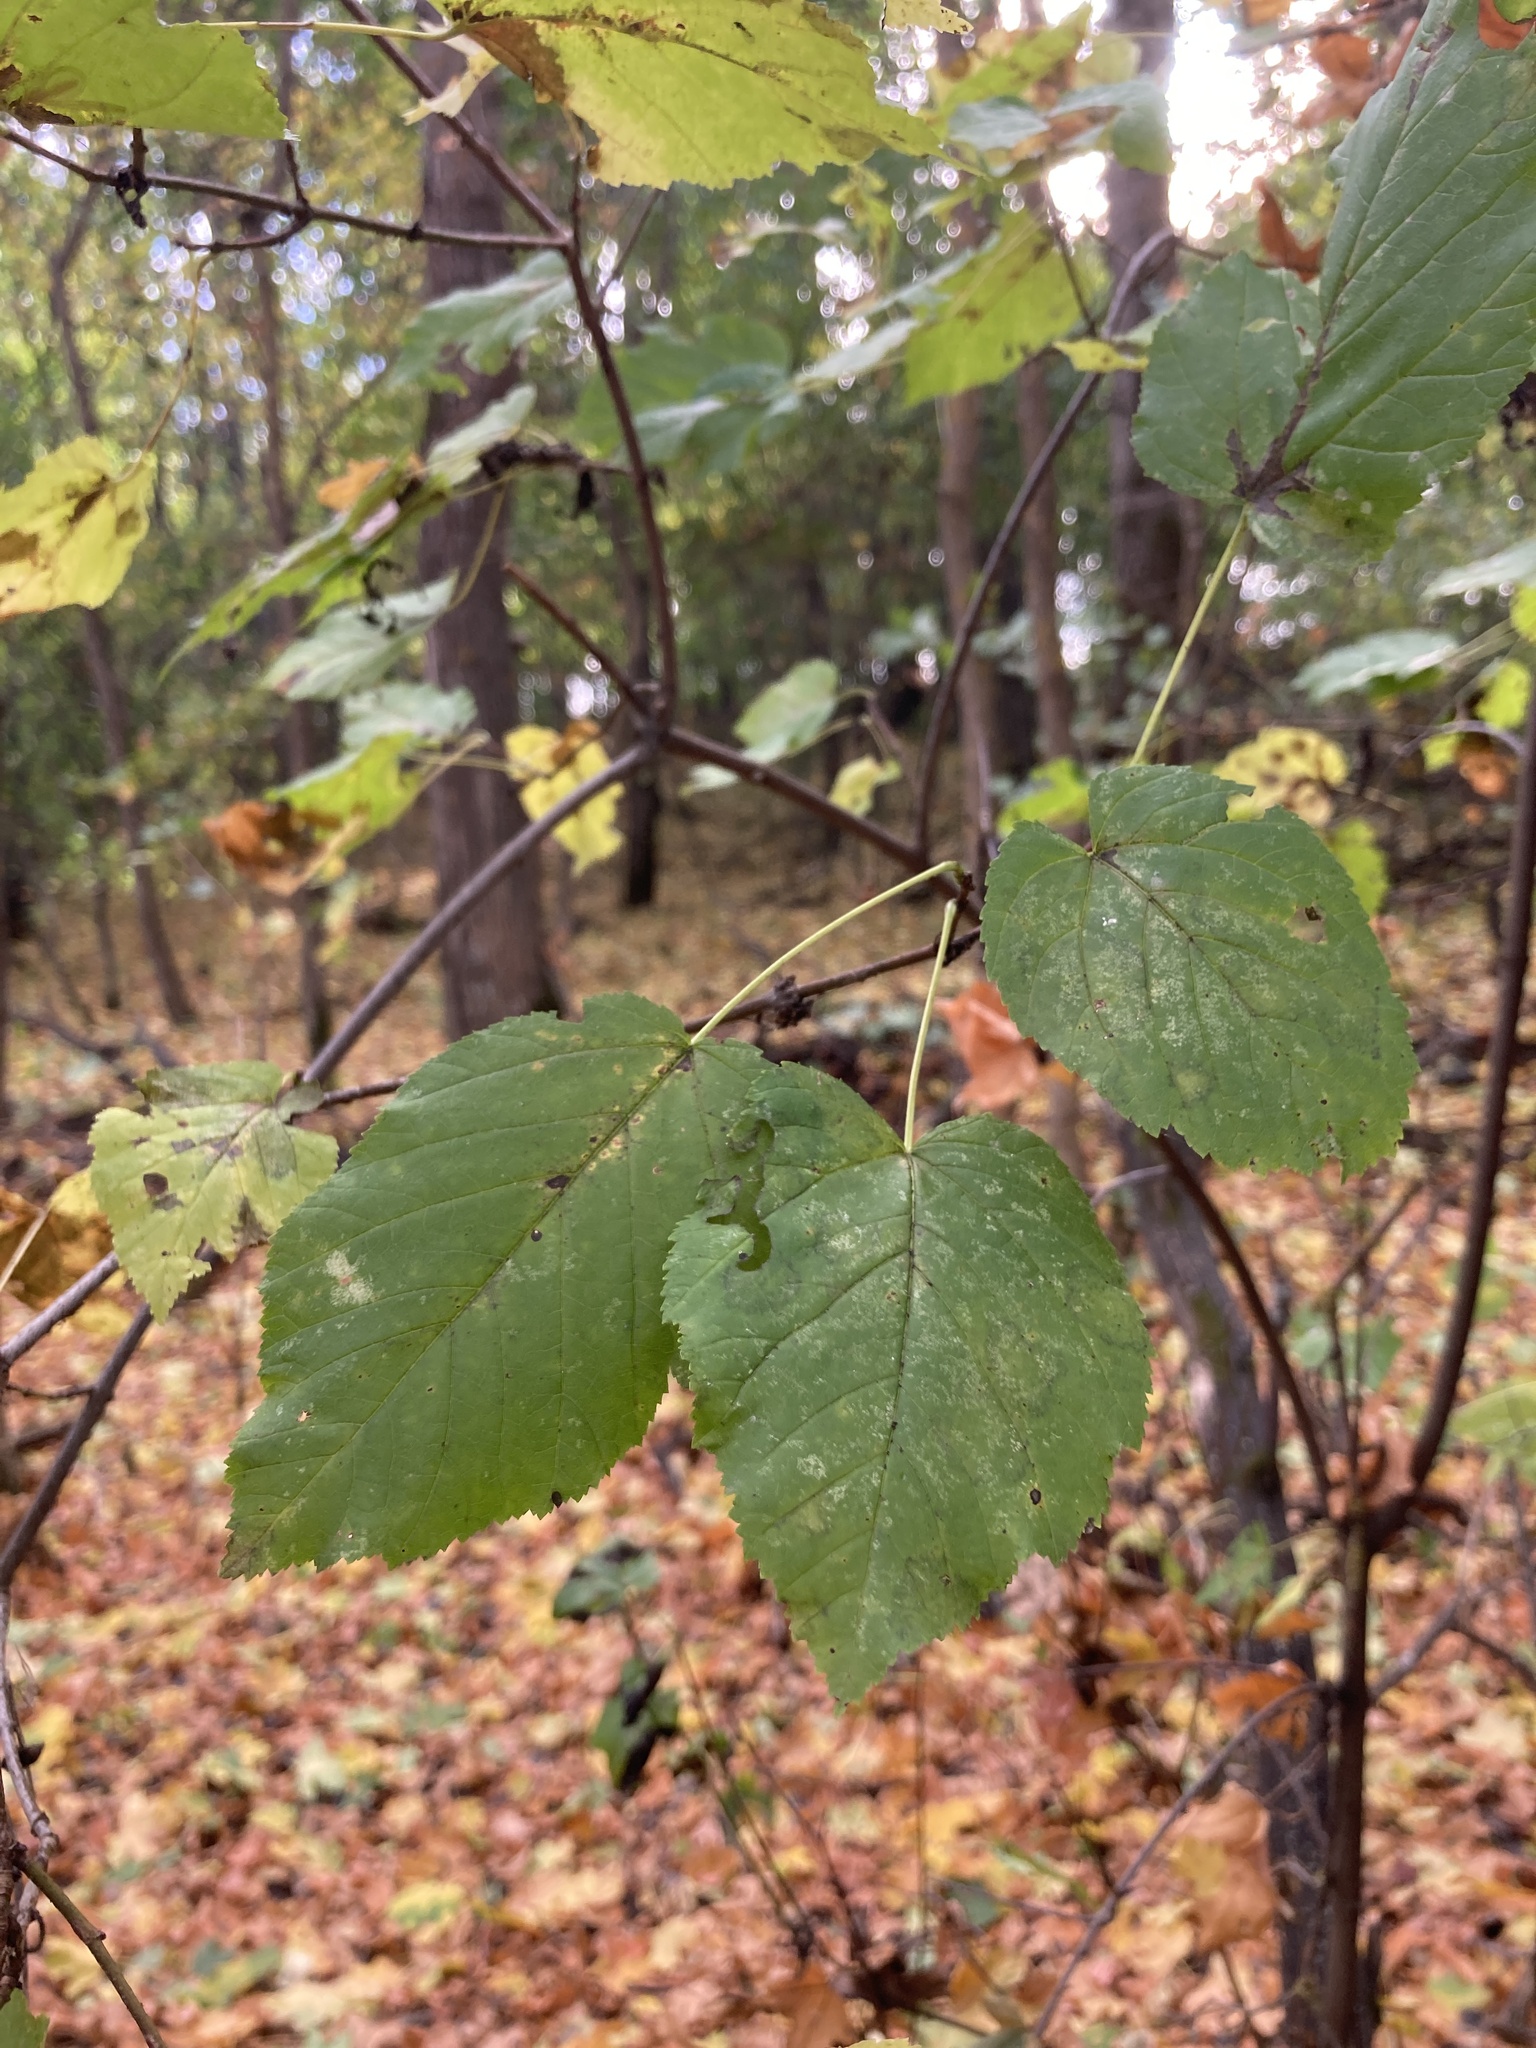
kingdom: Plantae
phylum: Tracheophyta
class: Magnoliopsida
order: Sapindales
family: Sapindaceae
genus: Acer
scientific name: Acer tataricum
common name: Tartar maple
